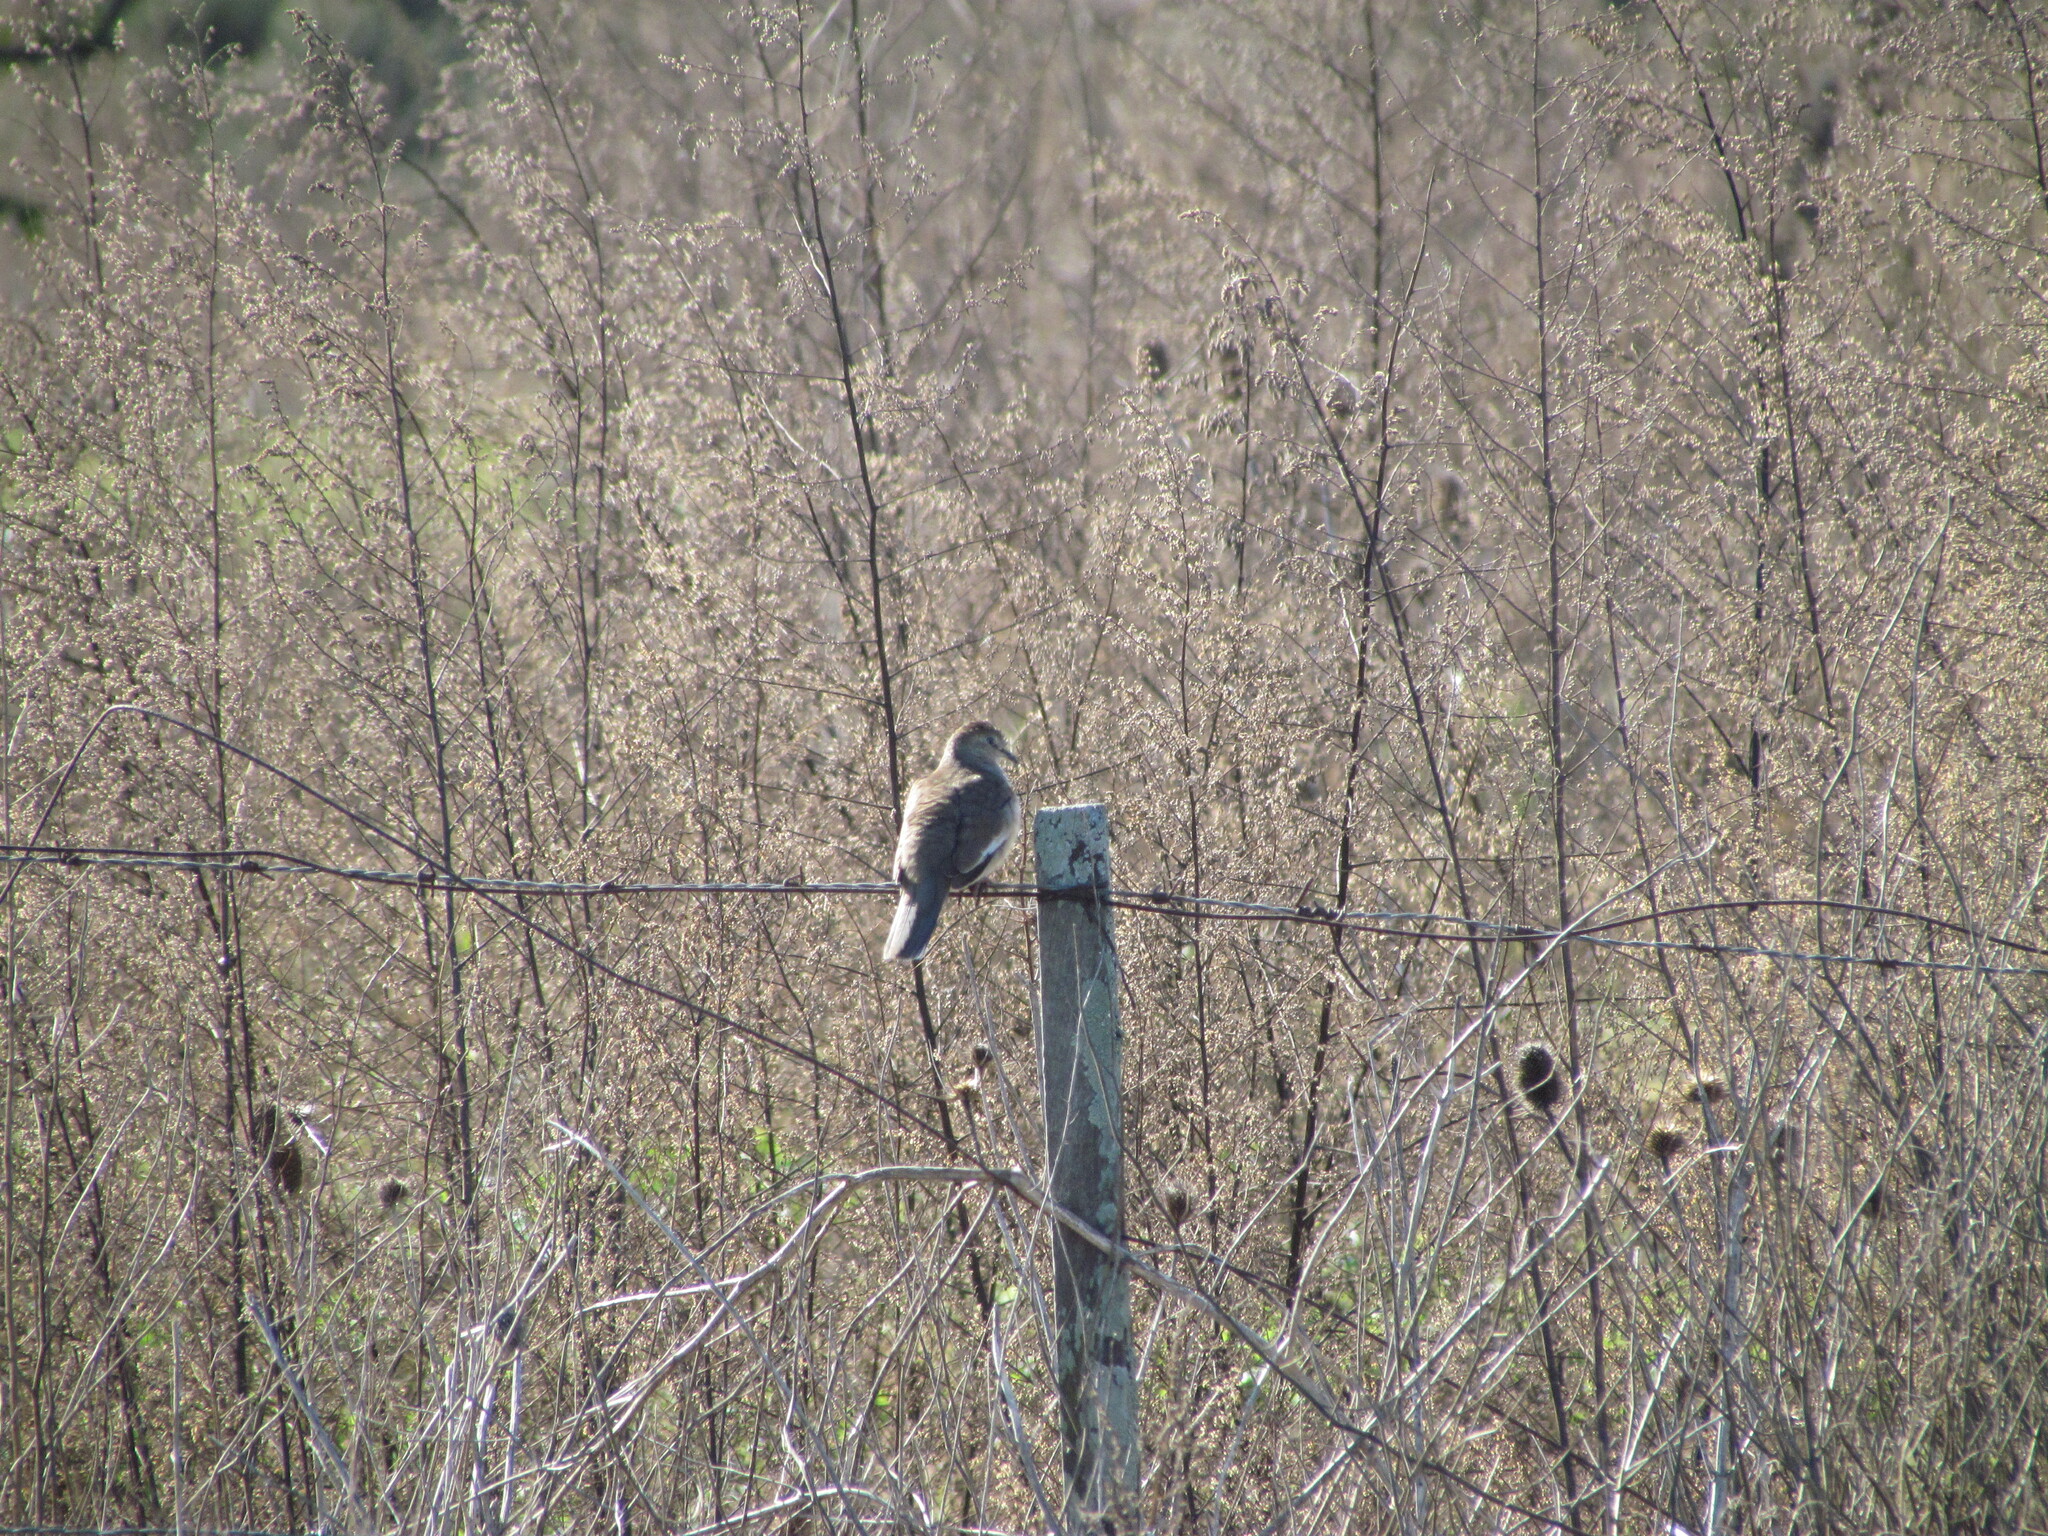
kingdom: Animalia
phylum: Chordata
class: Aves
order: Columbiformes
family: Columbidae
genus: Columbina
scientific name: Columbina picui
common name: Picui ground dove
